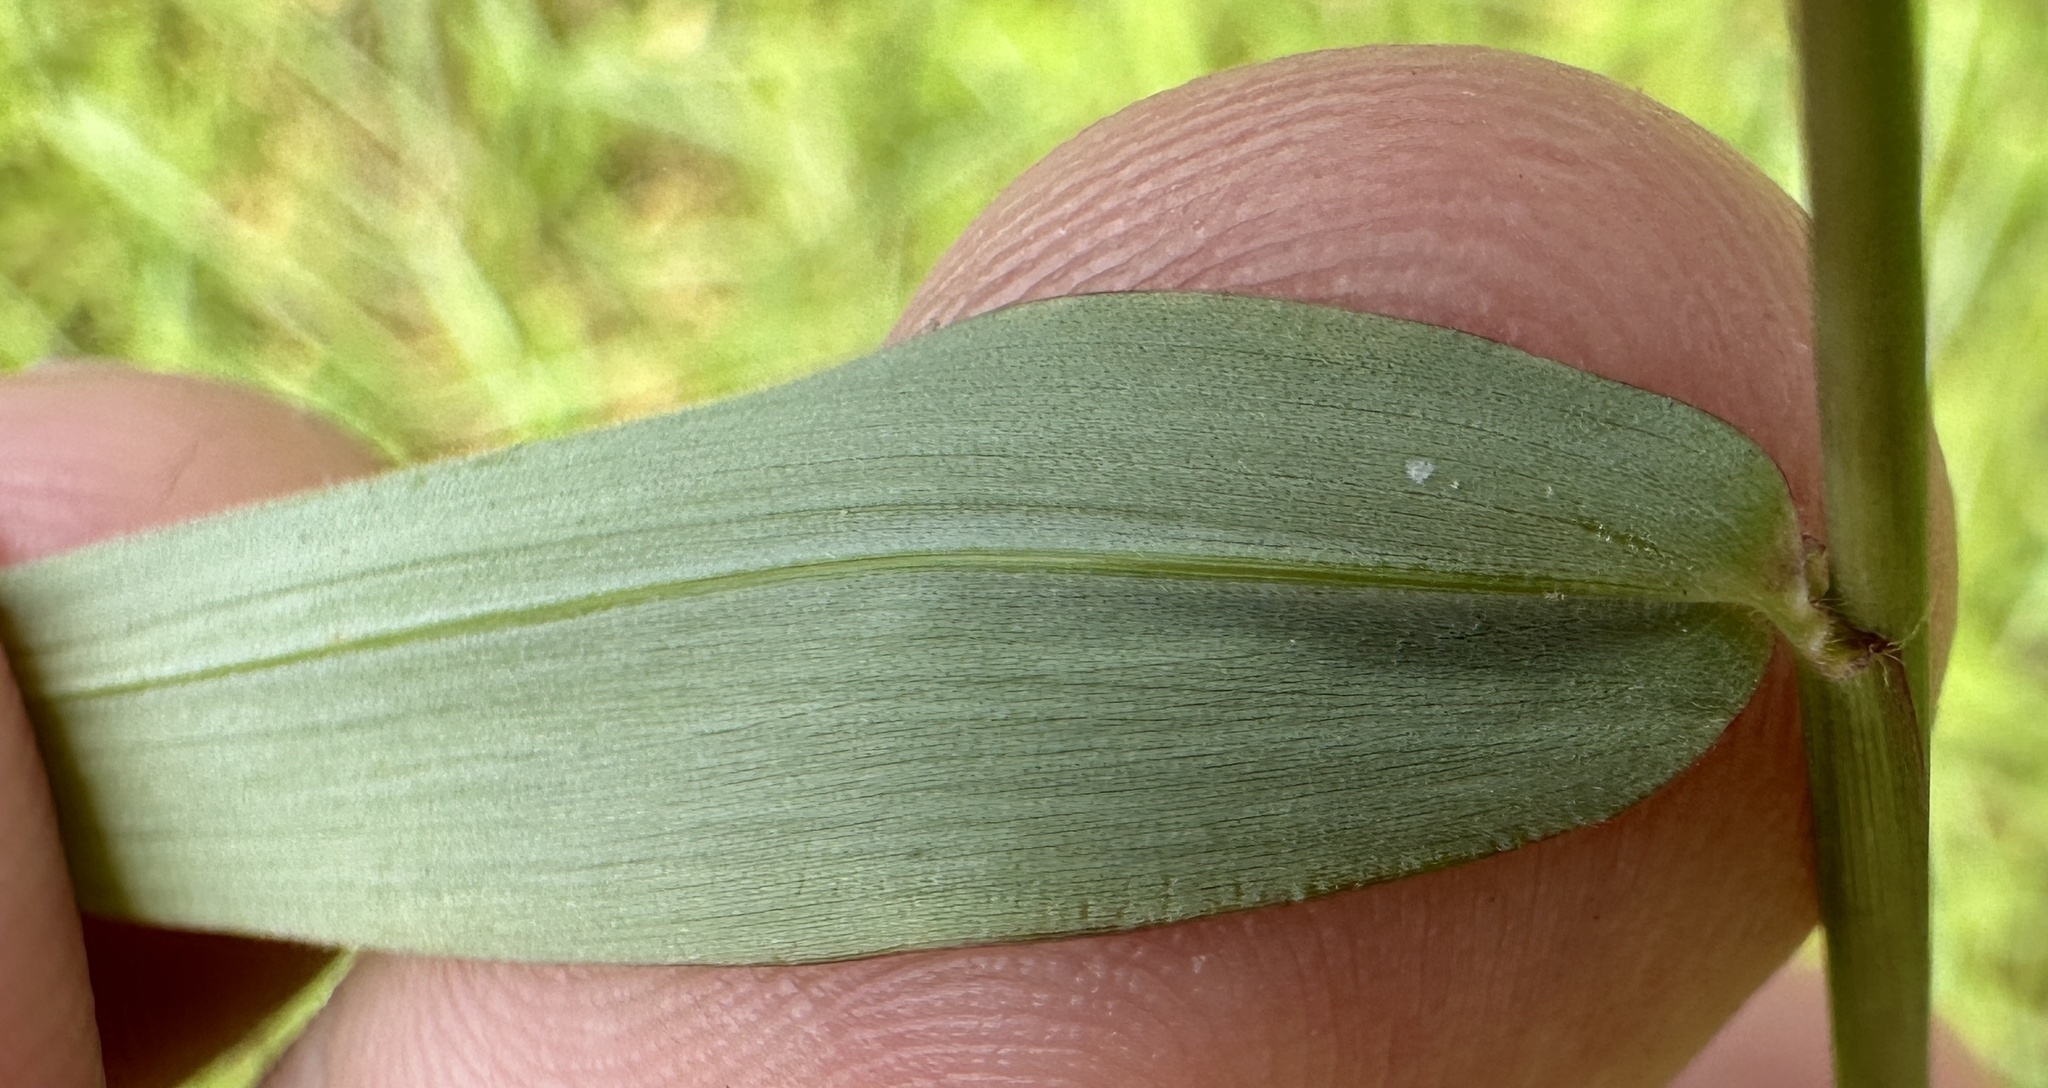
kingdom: Plantae
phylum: Tracheophyta
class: Liliopsida
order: Poales
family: Poaceae
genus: Panicum
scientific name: Panicum trichocladum
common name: Donkey grass
